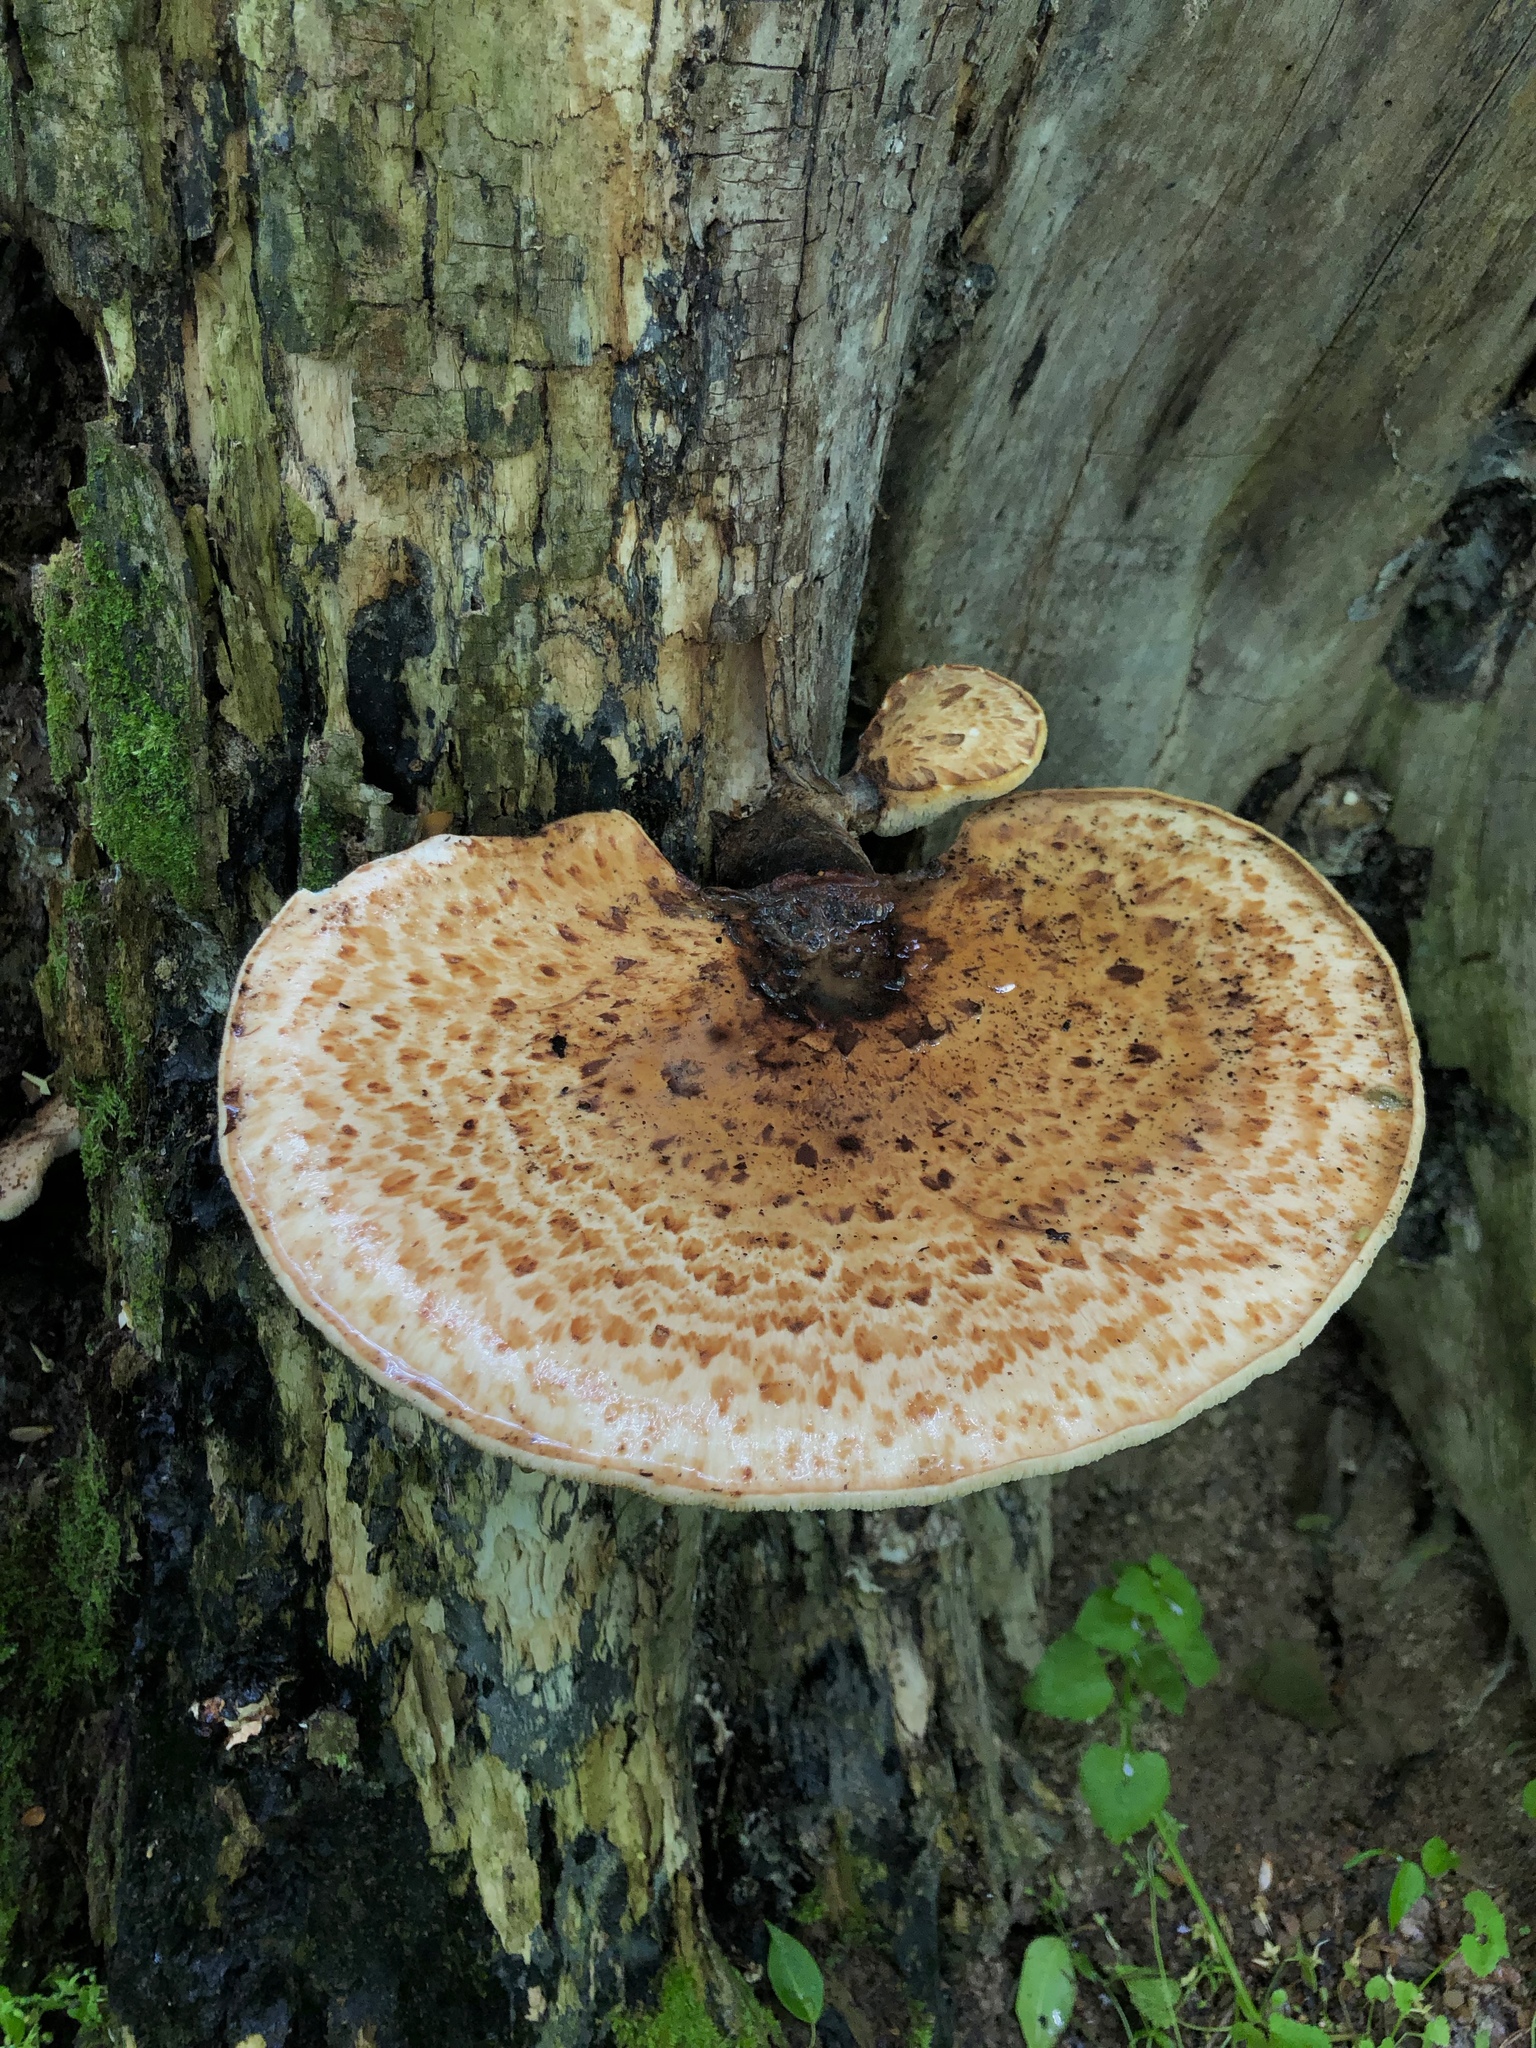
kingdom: Fungi
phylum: Basidiomycota
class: Agaricomycetes
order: Polyporales
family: Polyporaceae
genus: Cerioporus
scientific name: Cerioporus squamosus
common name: Dryad's saddle
